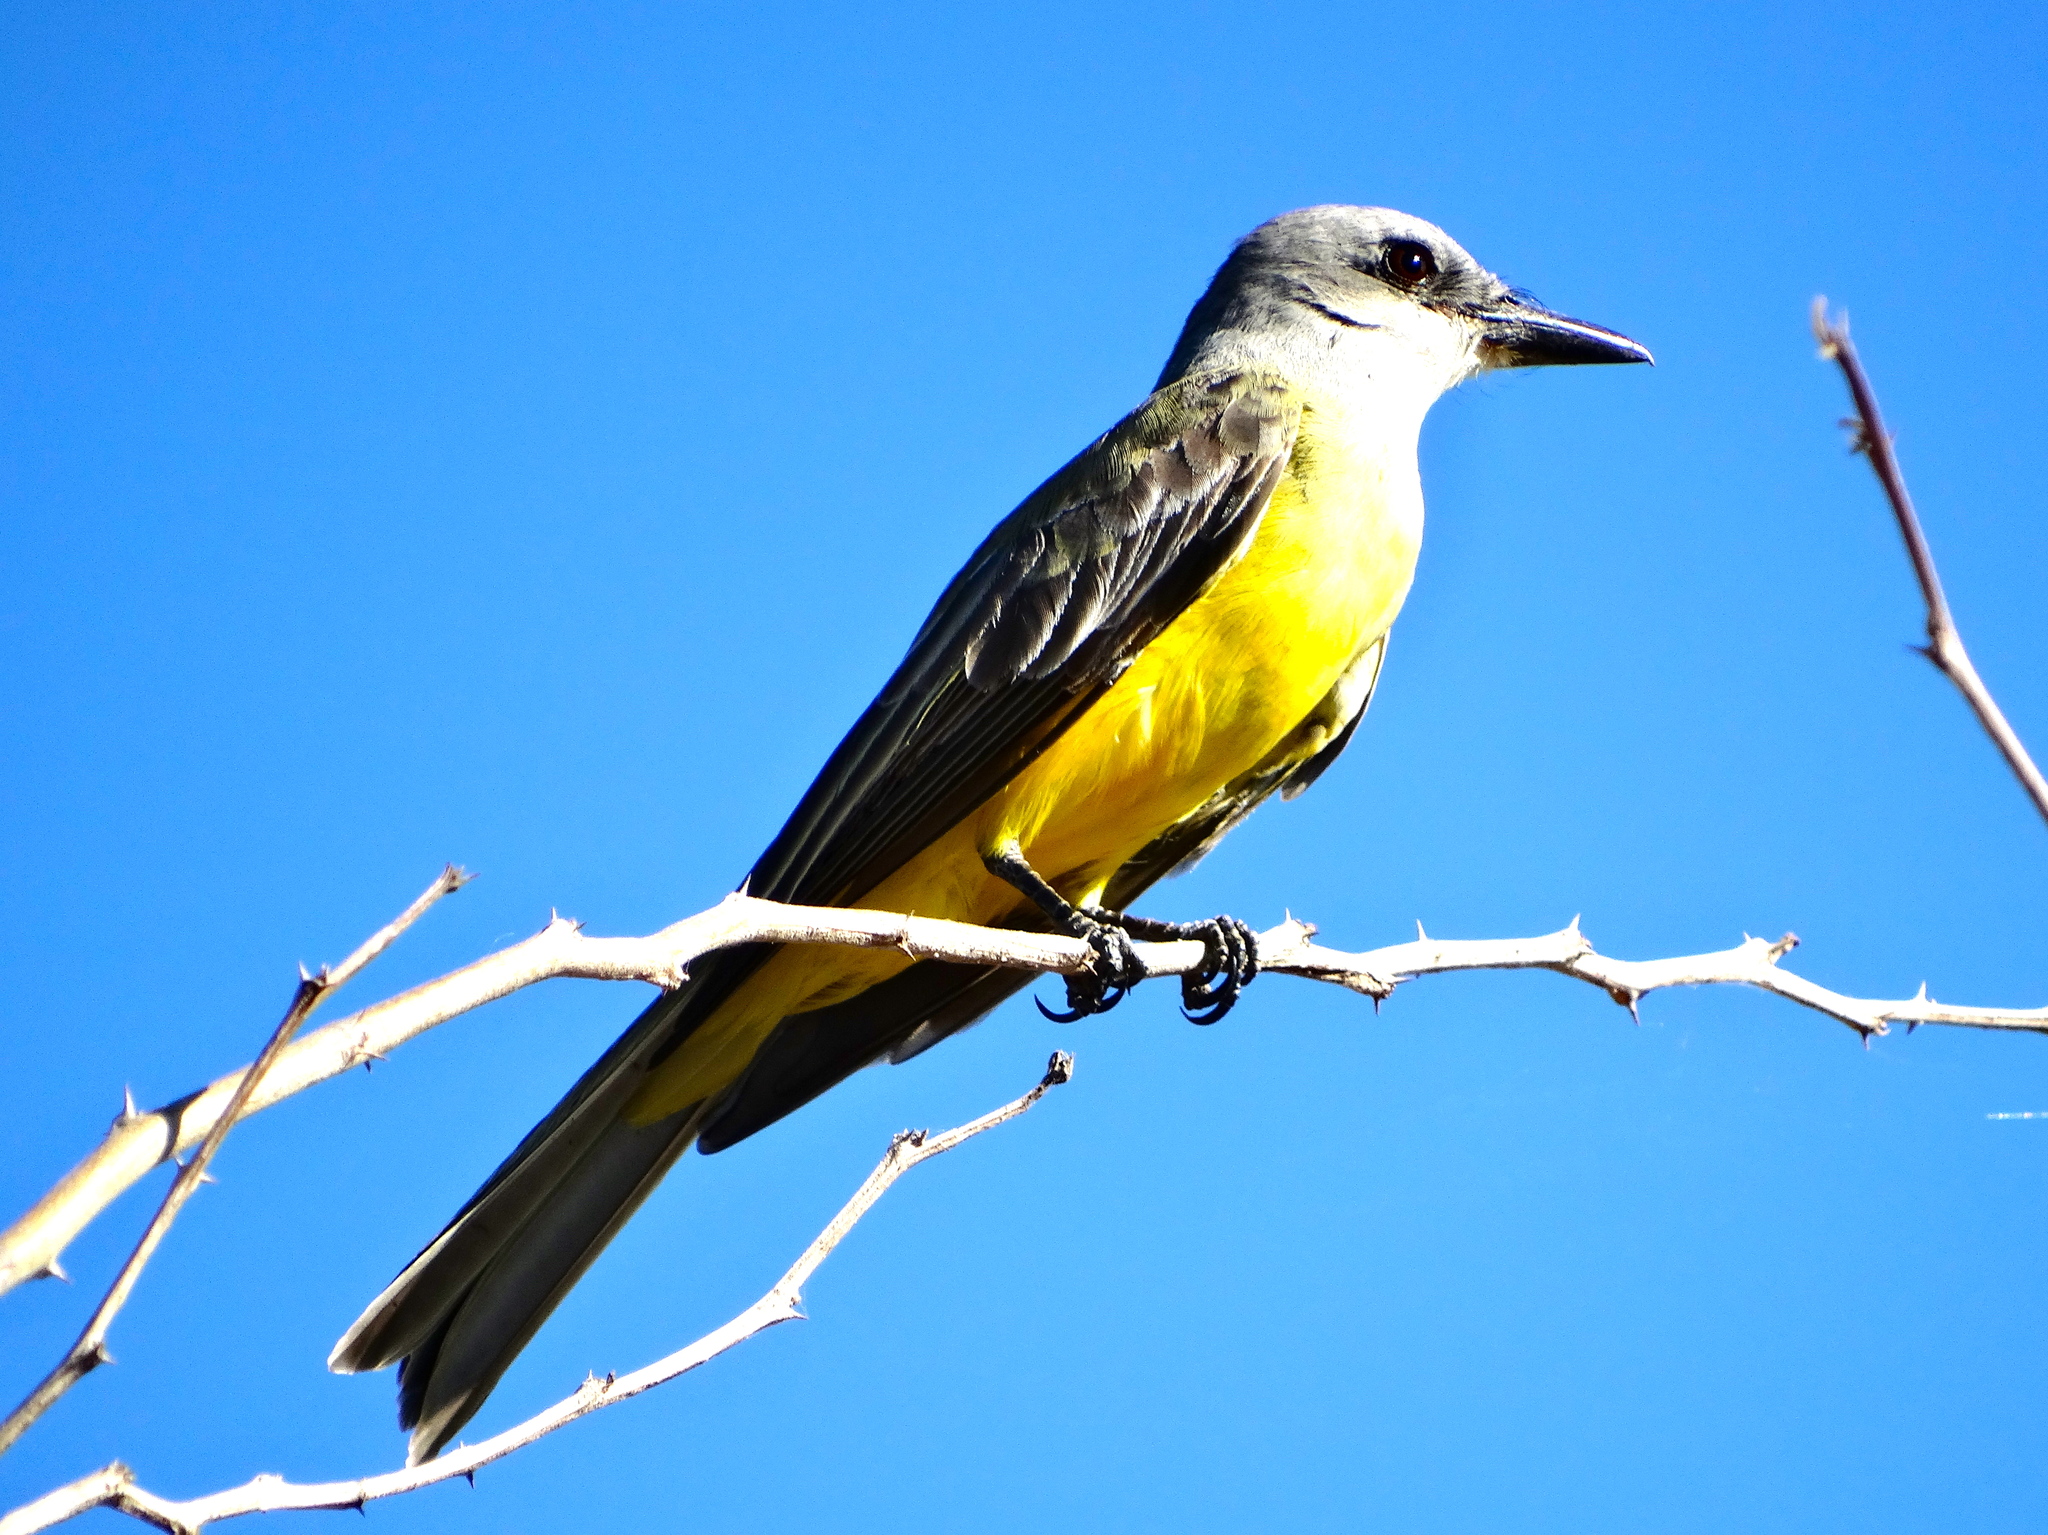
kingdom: Animalia
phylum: Chordata
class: Aves
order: Passeriformes
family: Tyrannidae
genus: Tyrannus
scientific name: Tyrannus melancholicus
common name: Tropical kingbird
